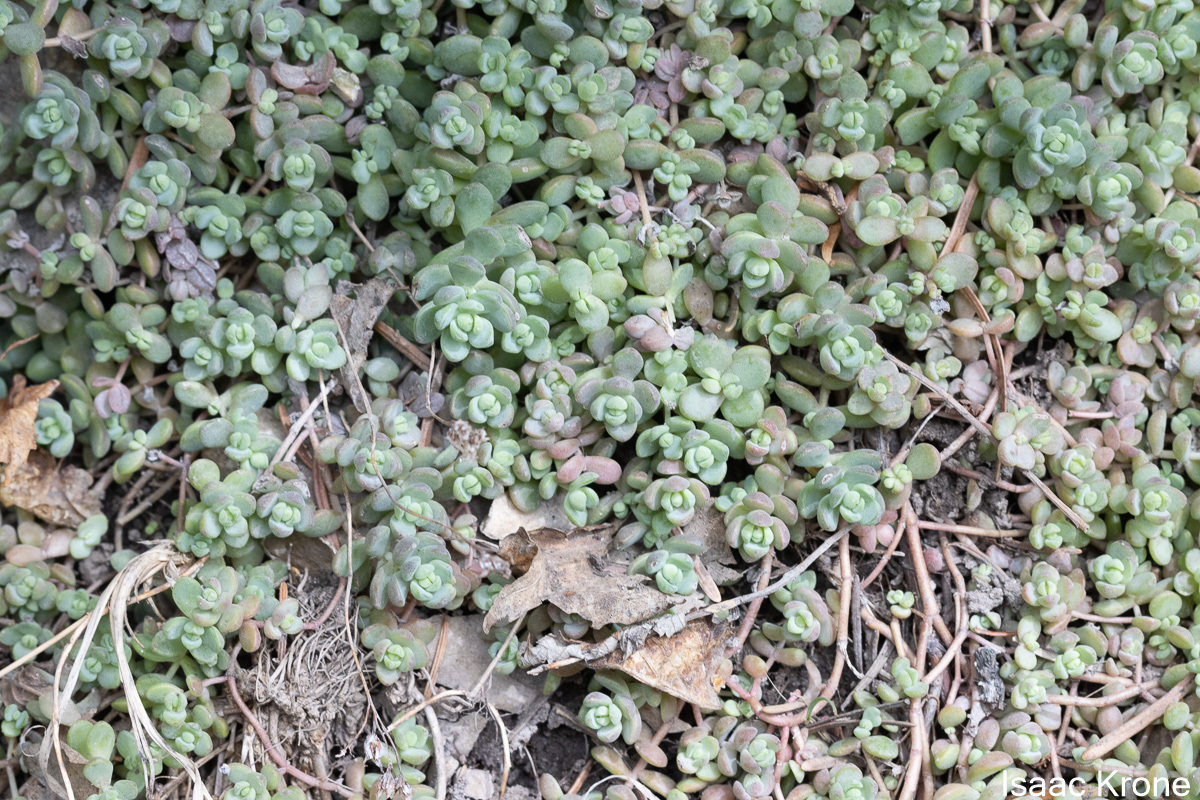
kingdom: Plantae
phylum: Tracheophyta
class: Magnoliopsida
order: Saxifragales
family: Crassulaceae
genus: Sedum
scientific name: Sedum debile
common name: Weak-stem stonecrop
